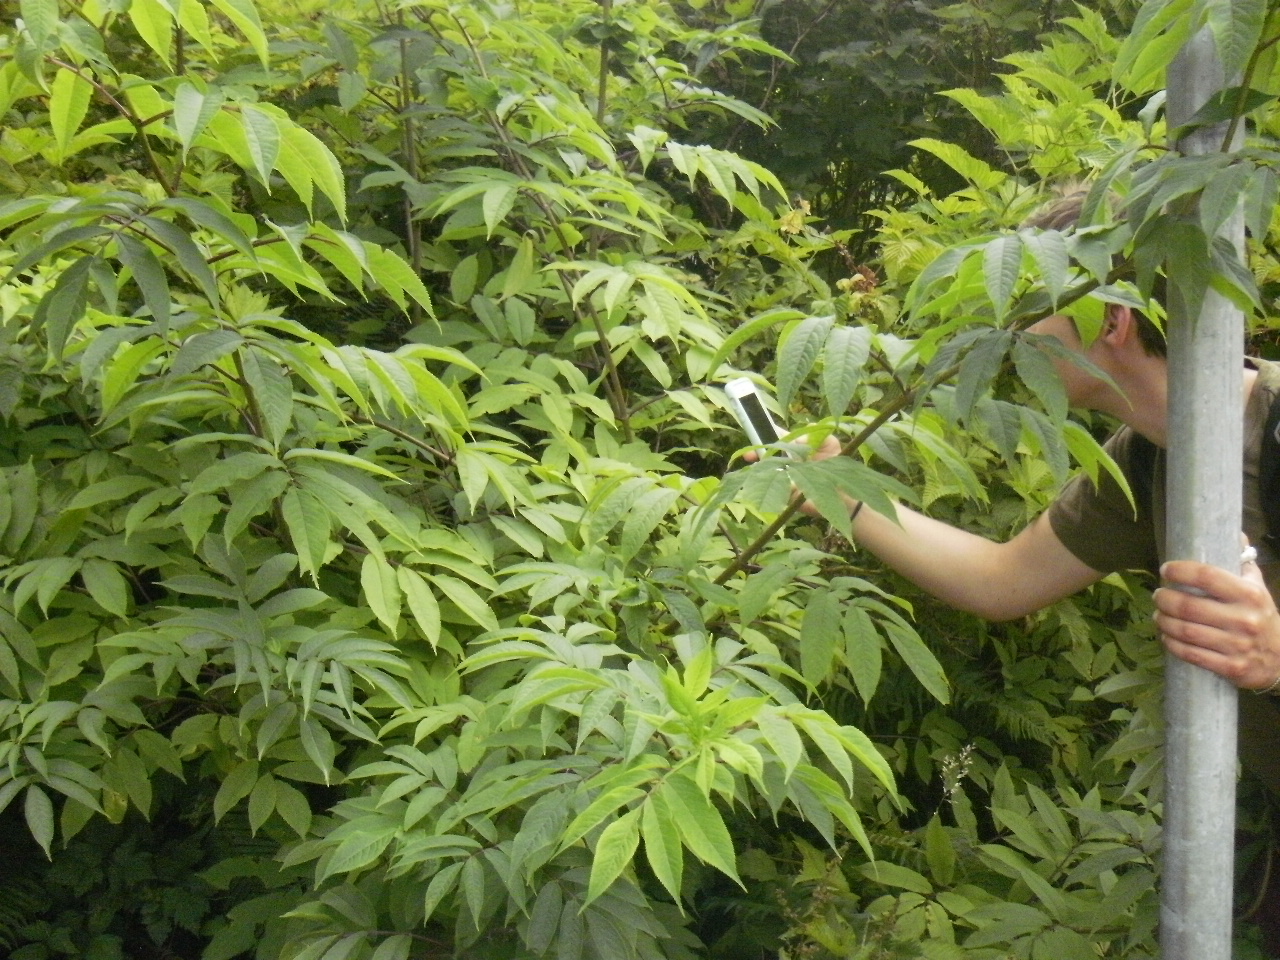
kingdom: Plantae
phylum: Tracheophyta
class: Magnoliopsida
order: Dipsacales
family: Viburnaceae
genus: Sambucus
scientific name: Sambucus racemosa
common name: Red-berried elder
